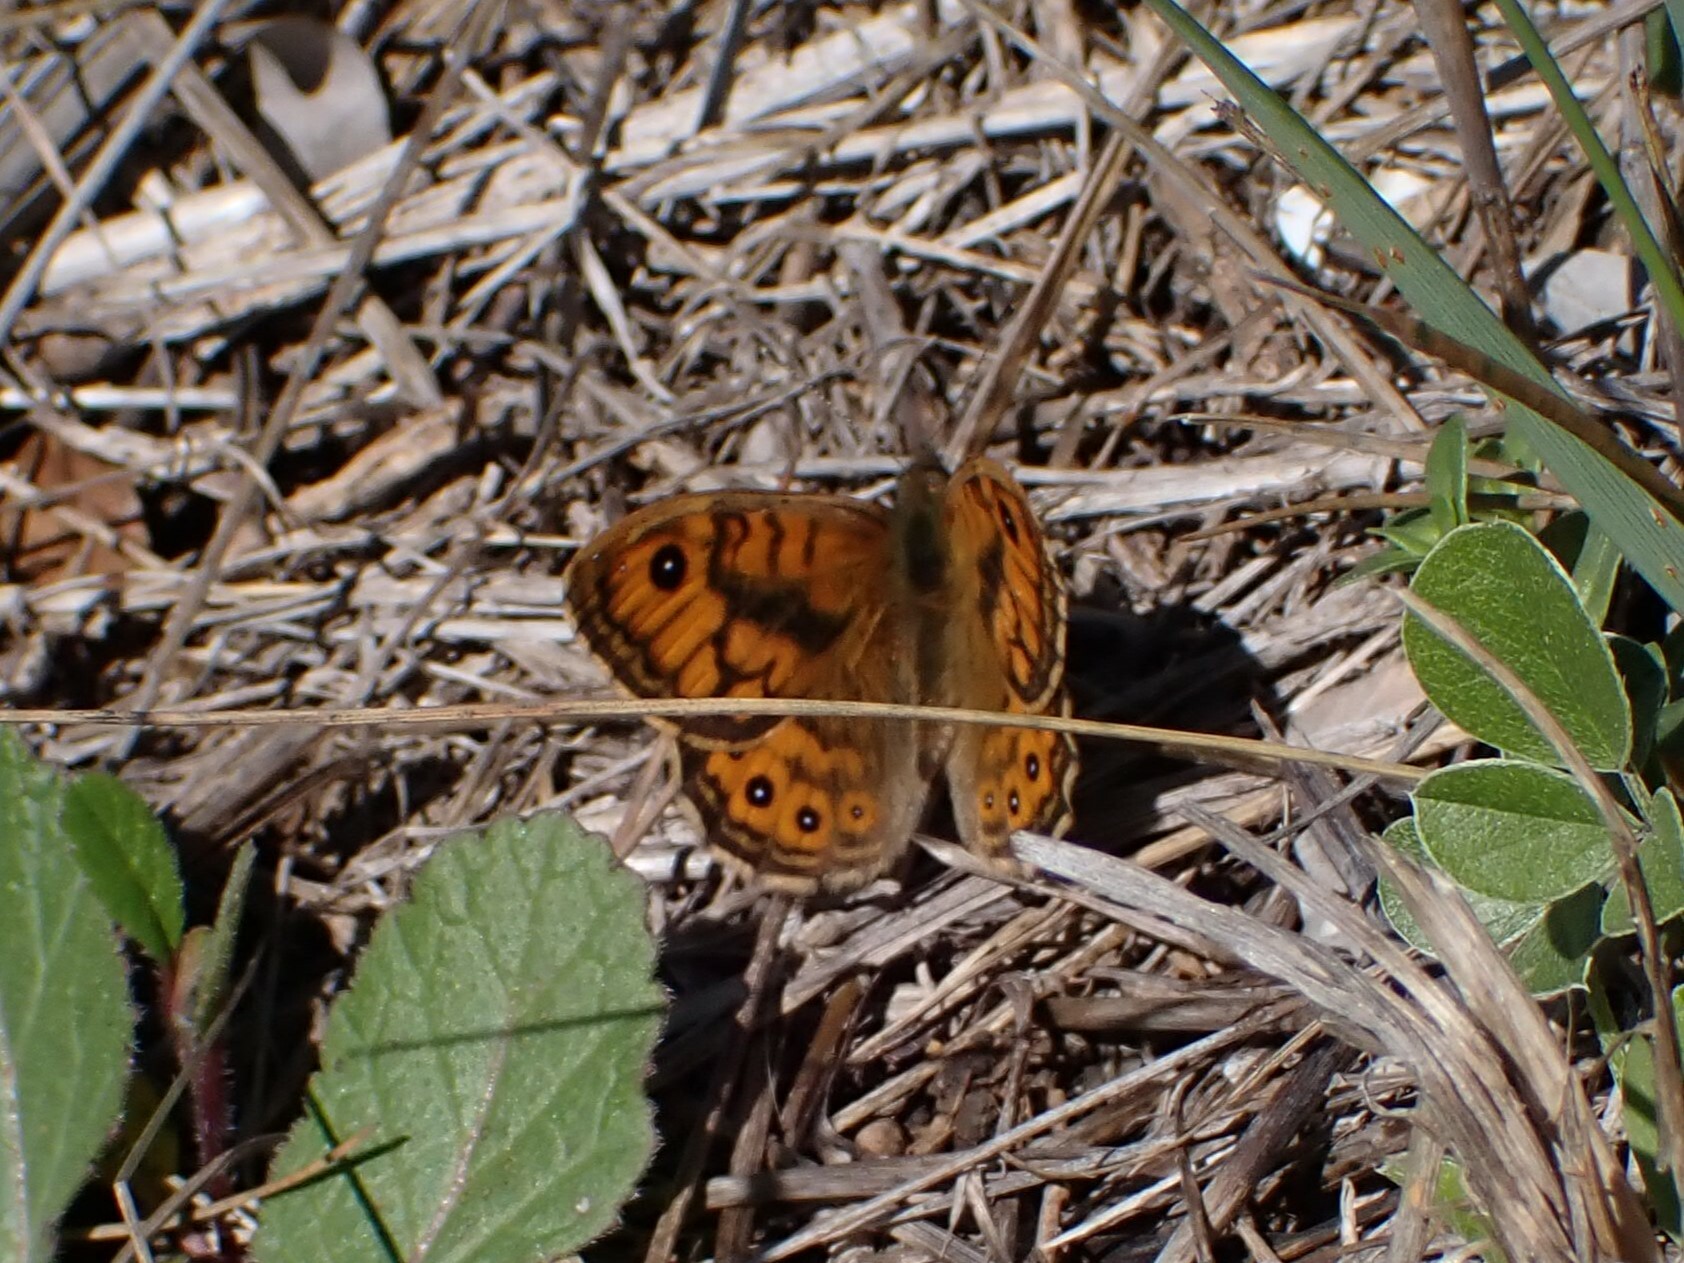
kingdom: Animalia
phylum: Arthropoda
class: Insecta
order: Lepidoptera
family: Nymphalidae
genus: Pararge
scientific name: Pararge Lasiommata megera
